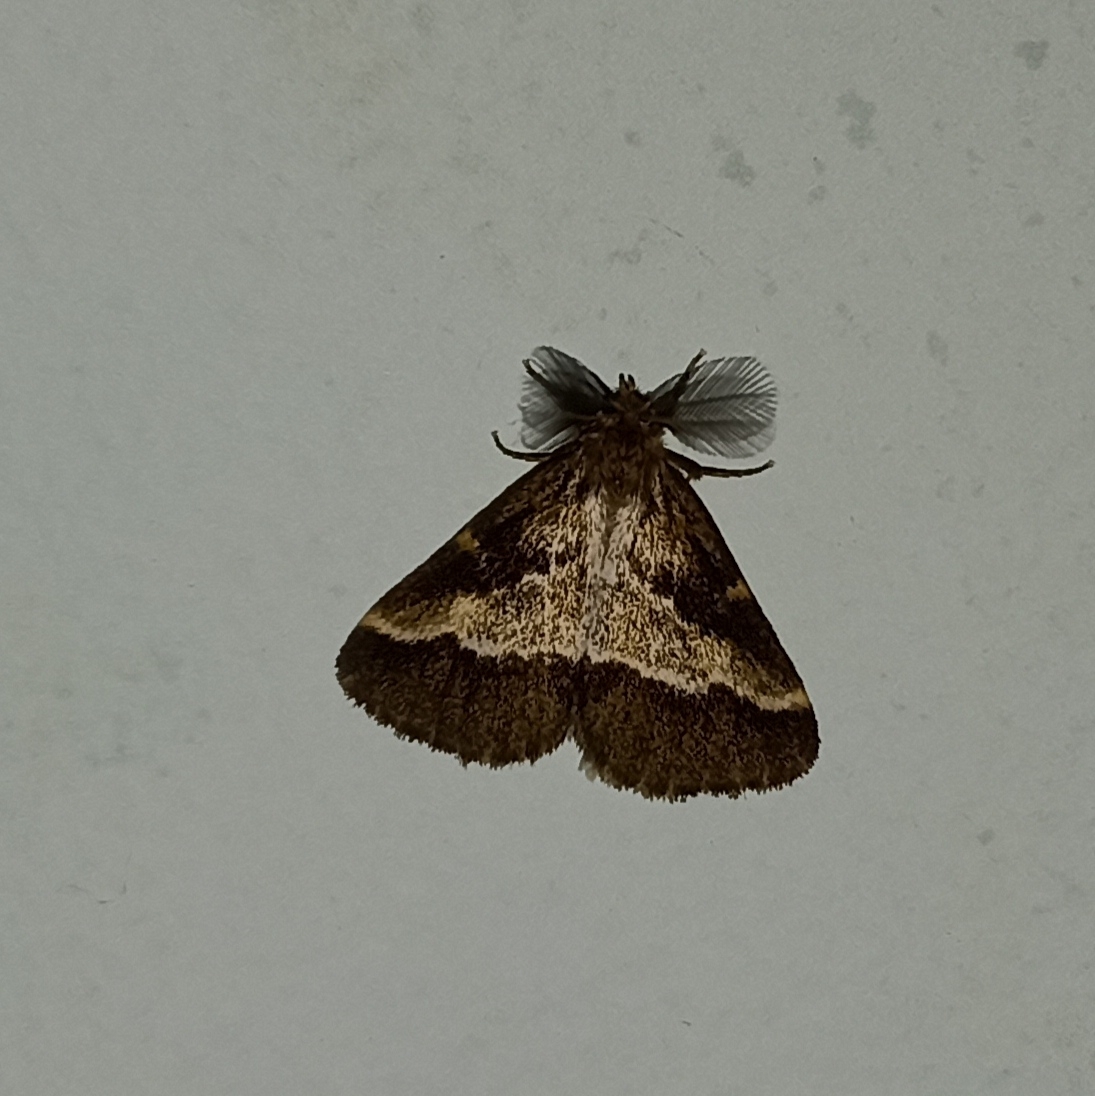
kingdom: Animalia
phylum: Arthropoda
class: Insecta
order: Lepidoptera
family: Erebidae
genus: Aroa
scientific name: Aroa cambelli
